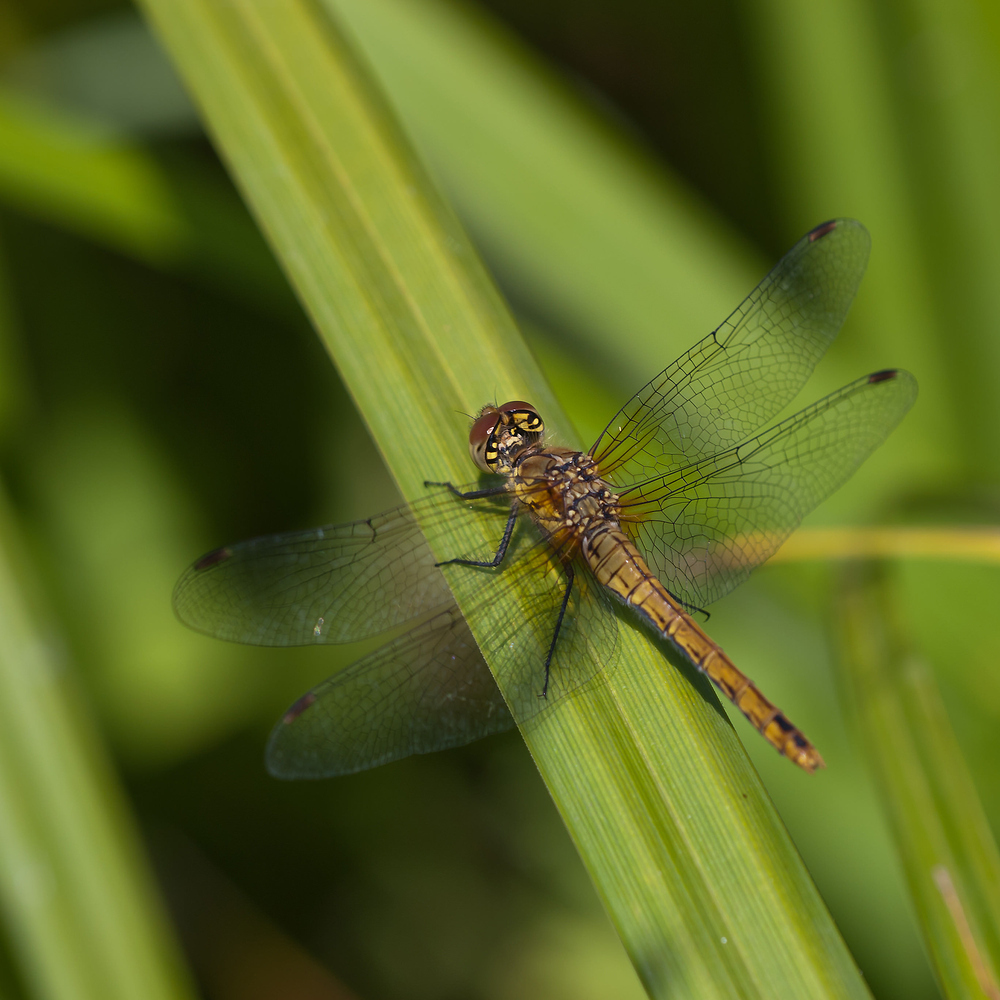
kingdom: Animalia
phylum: Arthropoda
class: Insecta
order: Odonata
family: Libellulidae
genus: Sympetrum
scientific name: Sympetrum sanguineum
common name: Ruddy darter
